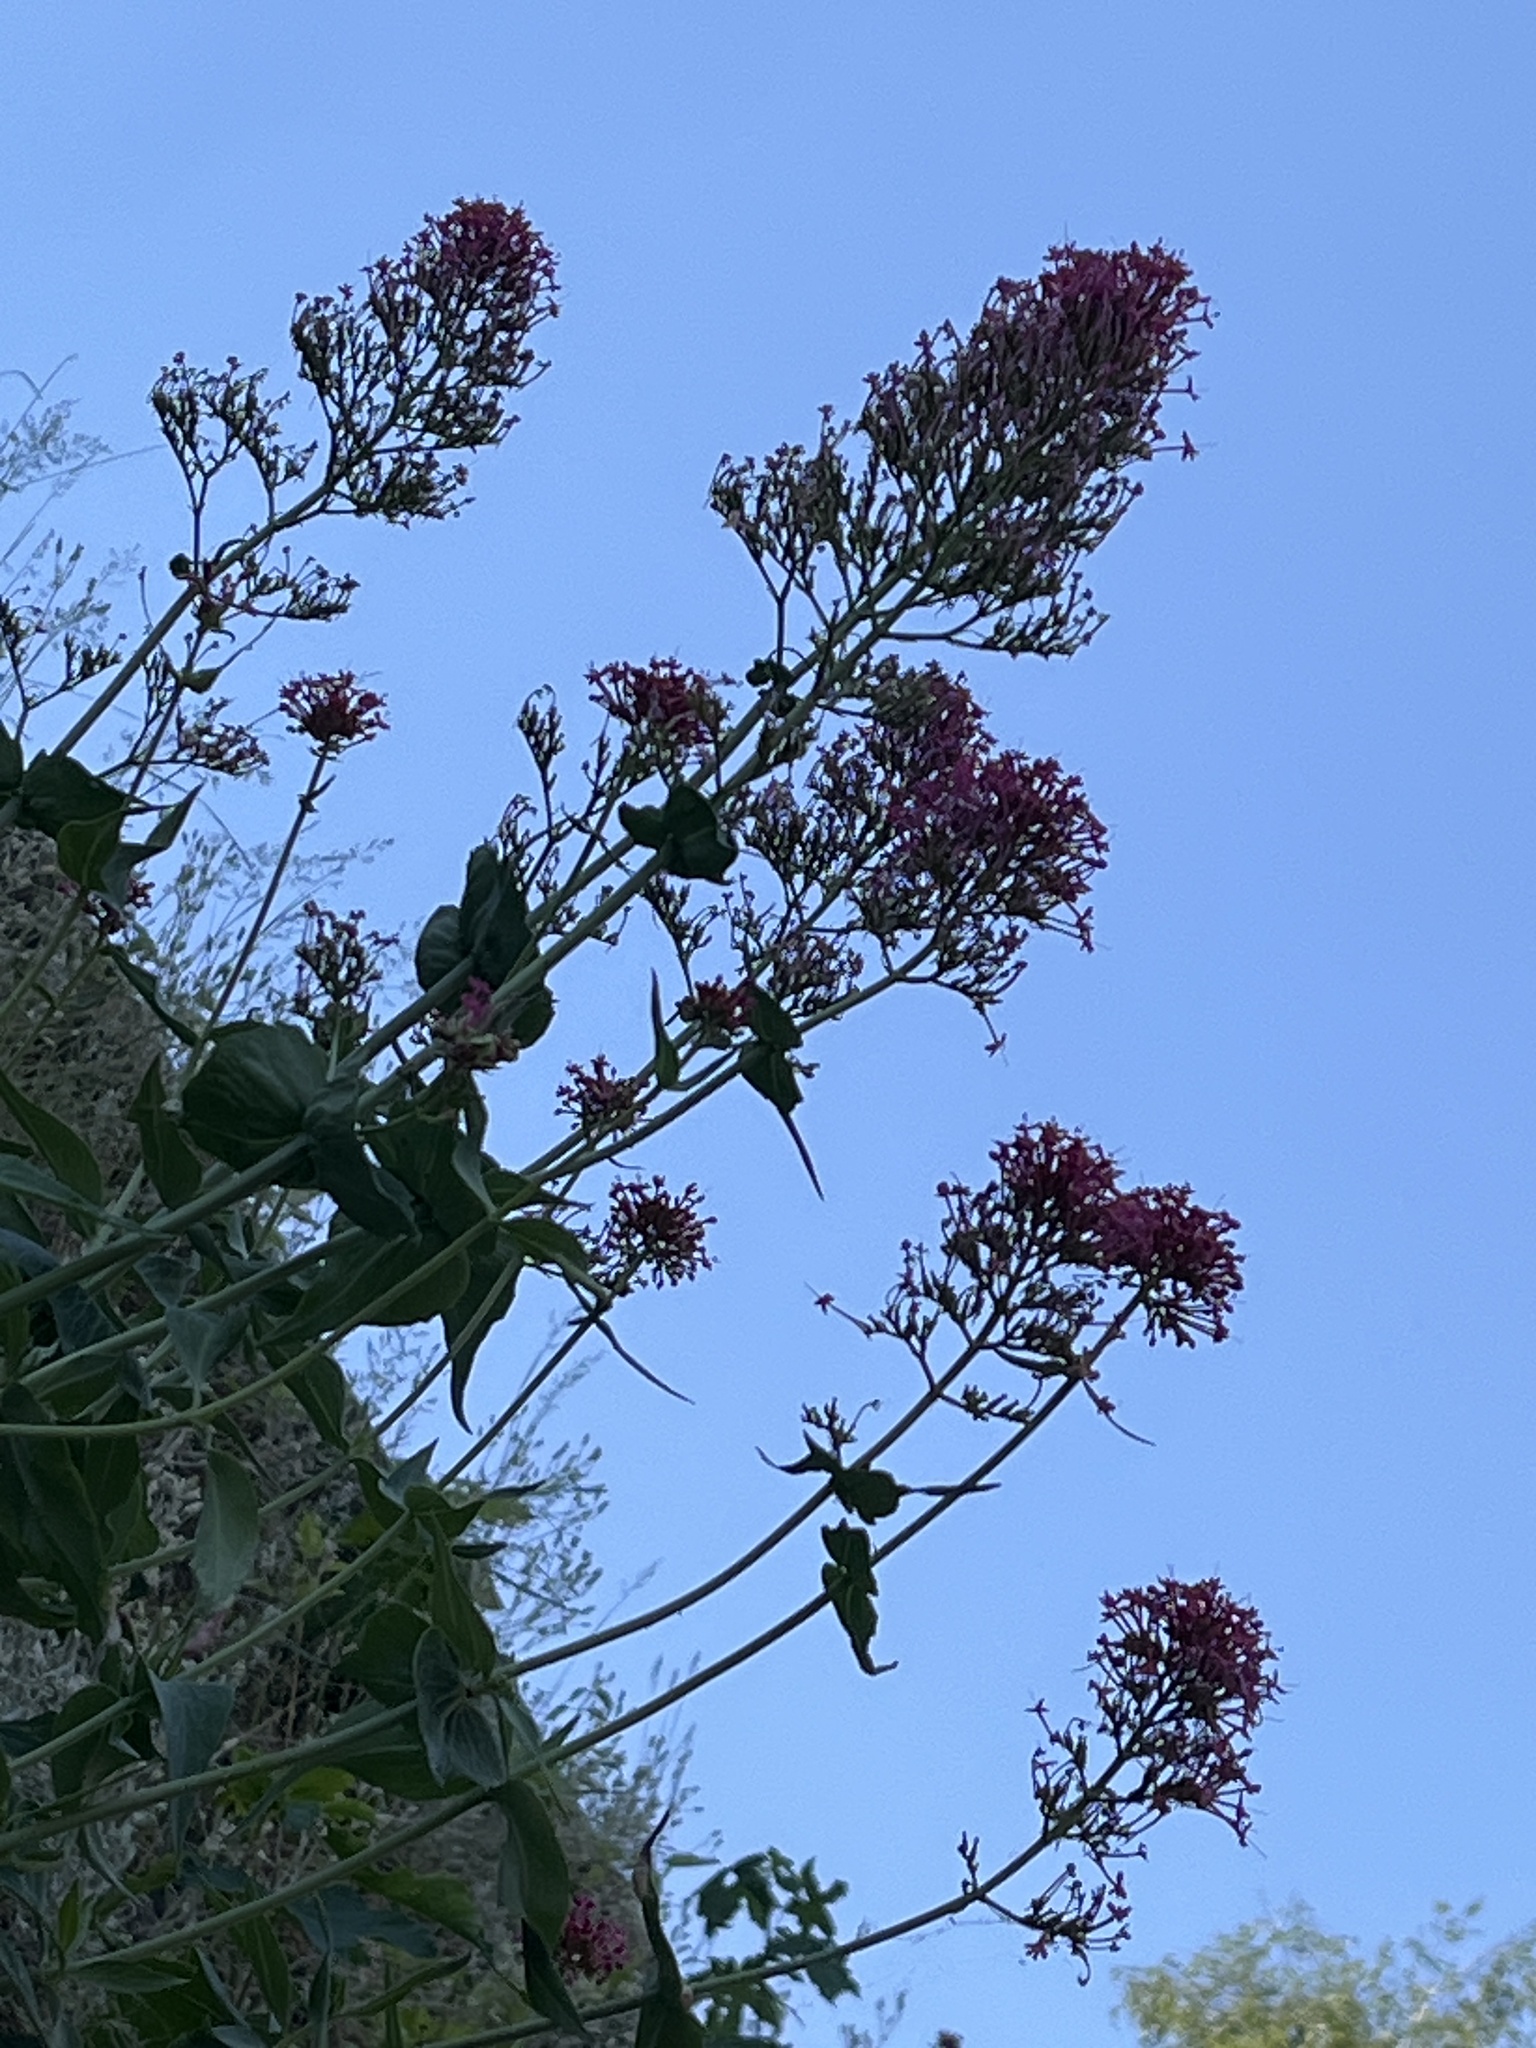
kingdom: Plantae
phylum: Tracheophyta
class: Magnoliopsida
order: Dipsacales
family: Caprifoliaceae
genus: Centranthus
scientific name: Centranthus ruber
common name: Red valerian
